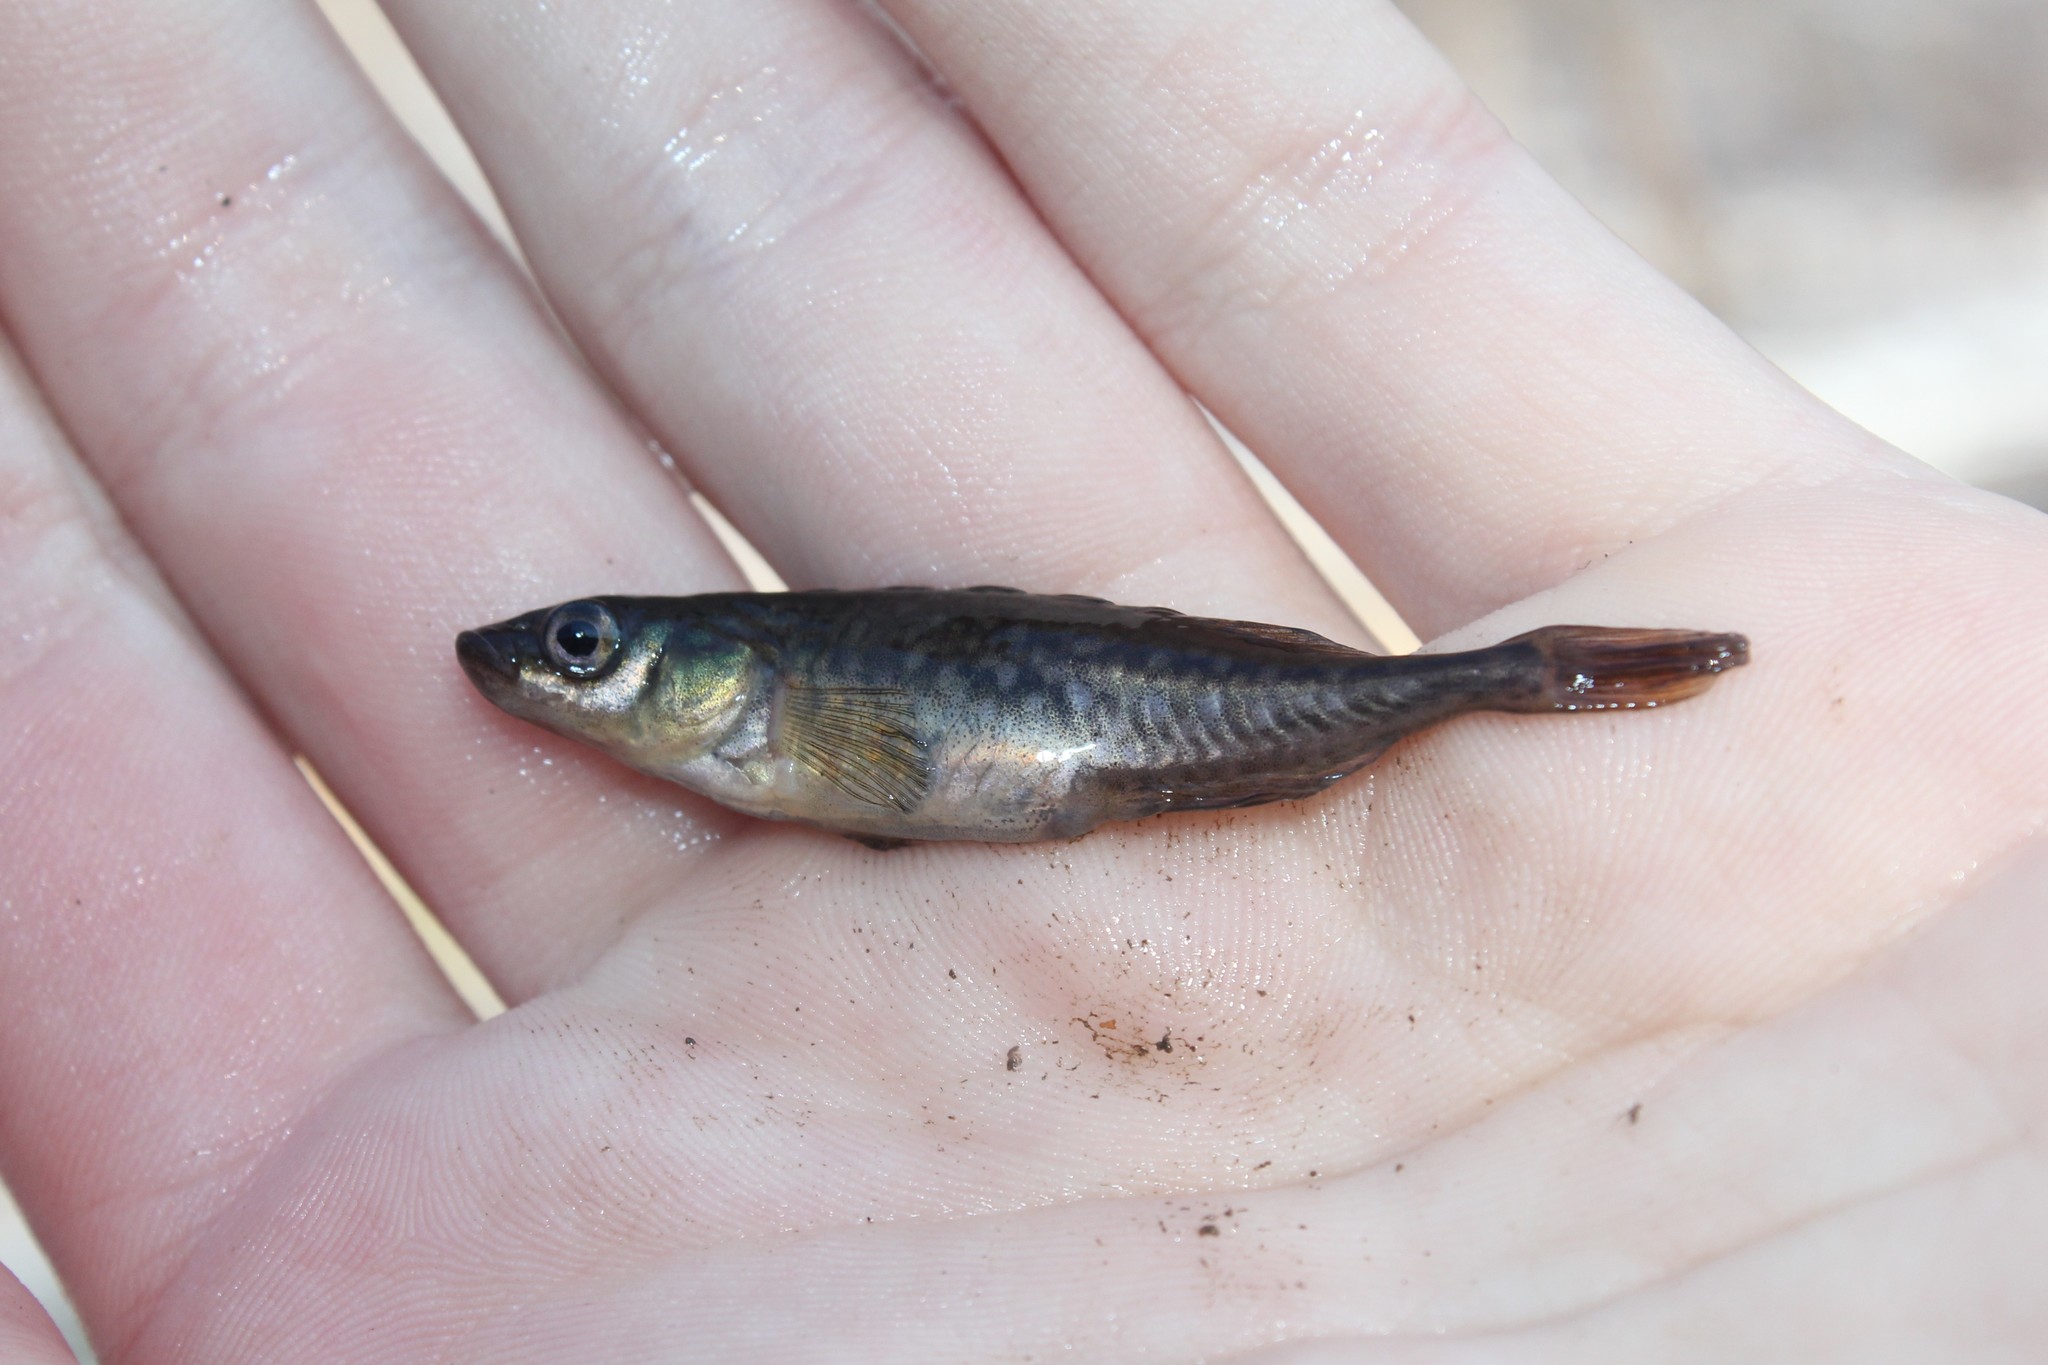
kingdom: Animalia
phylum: Chordata
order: Gasterosteiformes
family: Gasterosteidae
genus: Culaea
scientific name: Culaea inconstans
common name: Brook stickleback
